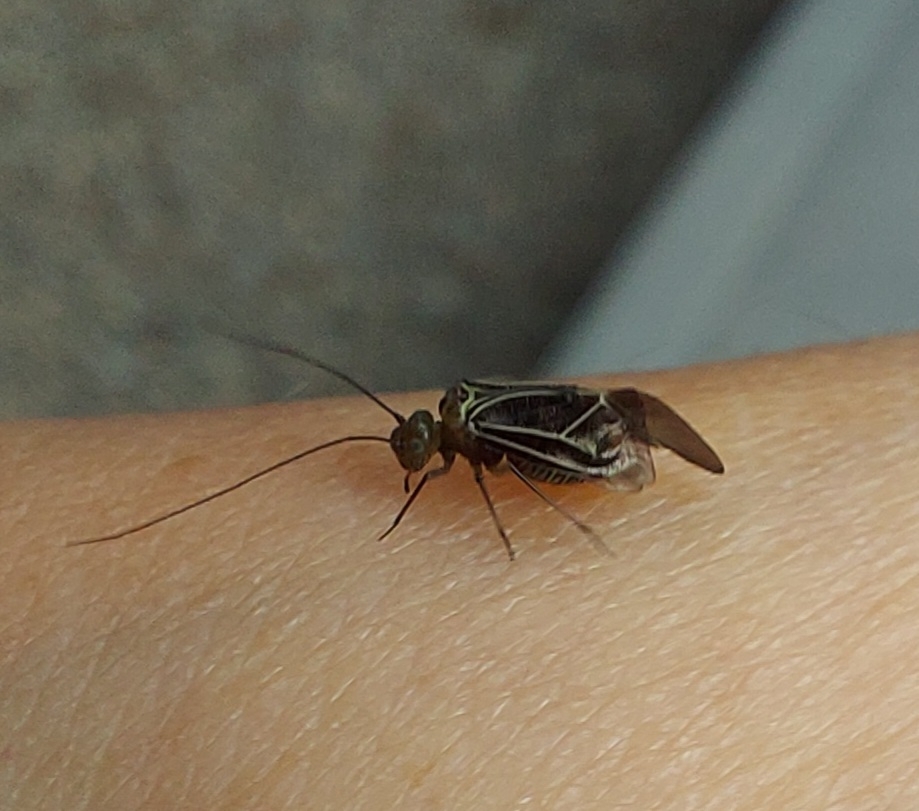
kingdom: Animalia
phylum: Arthropoda
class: Insecta
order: Psocodea
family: Psocidae
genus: Cerastipsocus
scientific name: Cerastipsocus venosus
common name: Tree cattle
